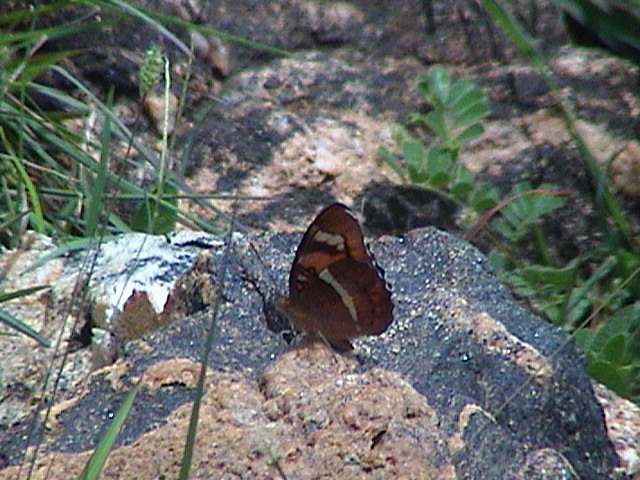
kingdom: Animalia
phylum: Arthropoda
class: Insecta
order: Lepidoptera
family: Nymphalidae
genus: Euthalia
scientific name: Euthalia nais
